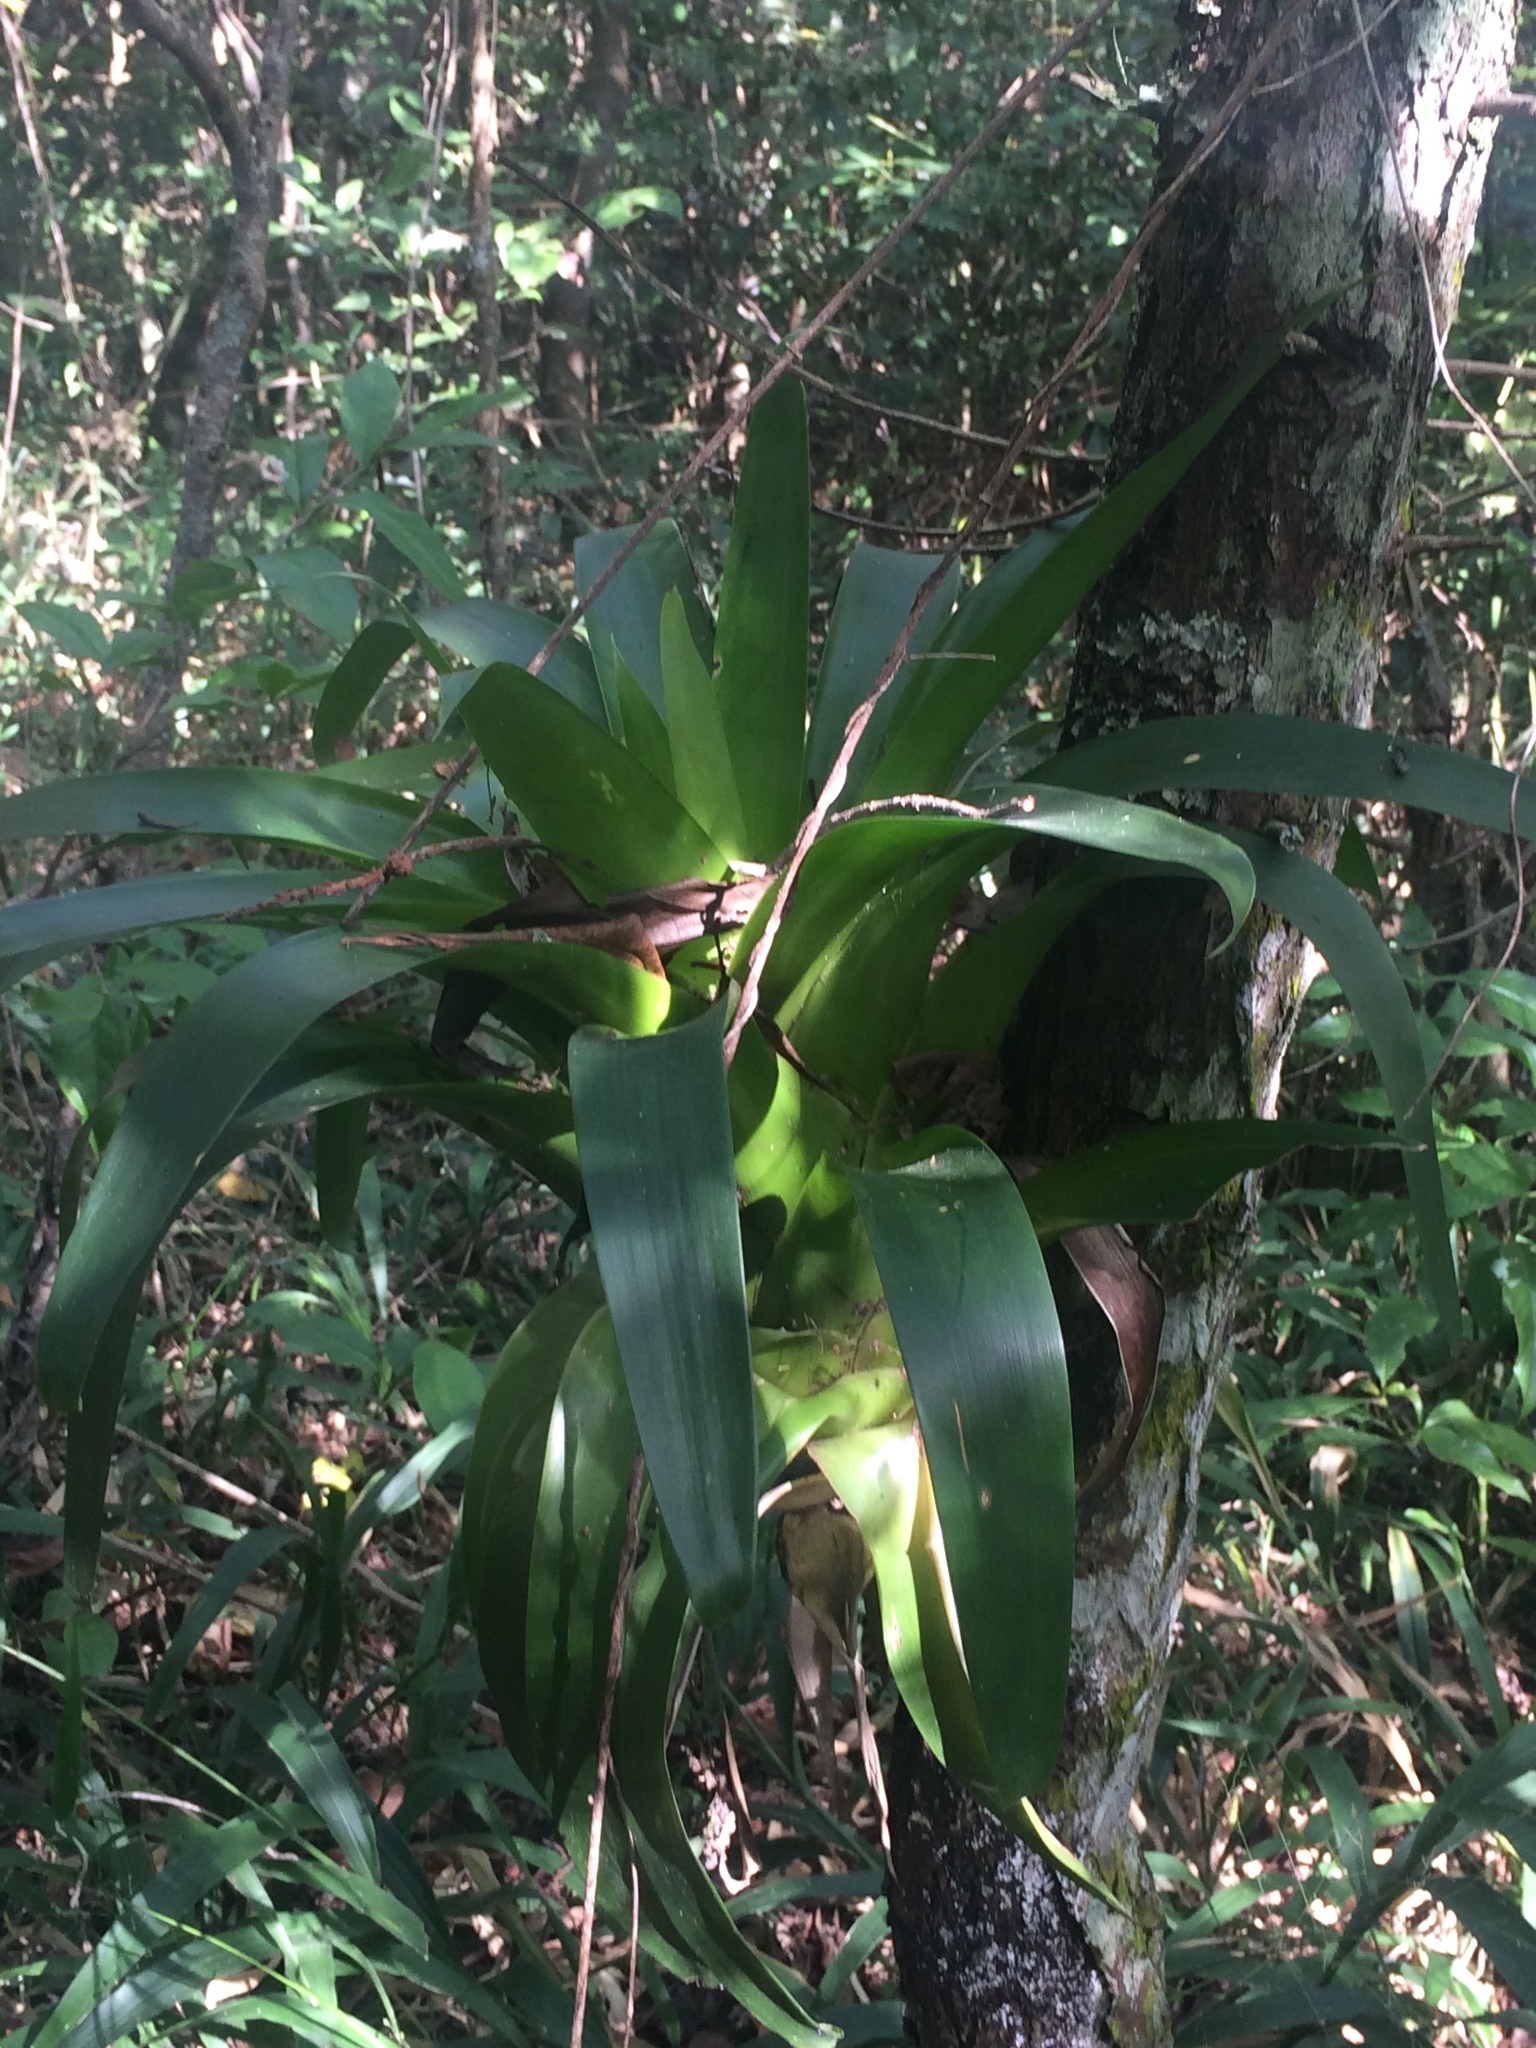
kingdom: Plantae
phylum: Tracheophyta
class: Liliopsida
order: Poales
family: Bromeliaceae
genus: Tillandsia
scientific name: Tillandsia deppeana
